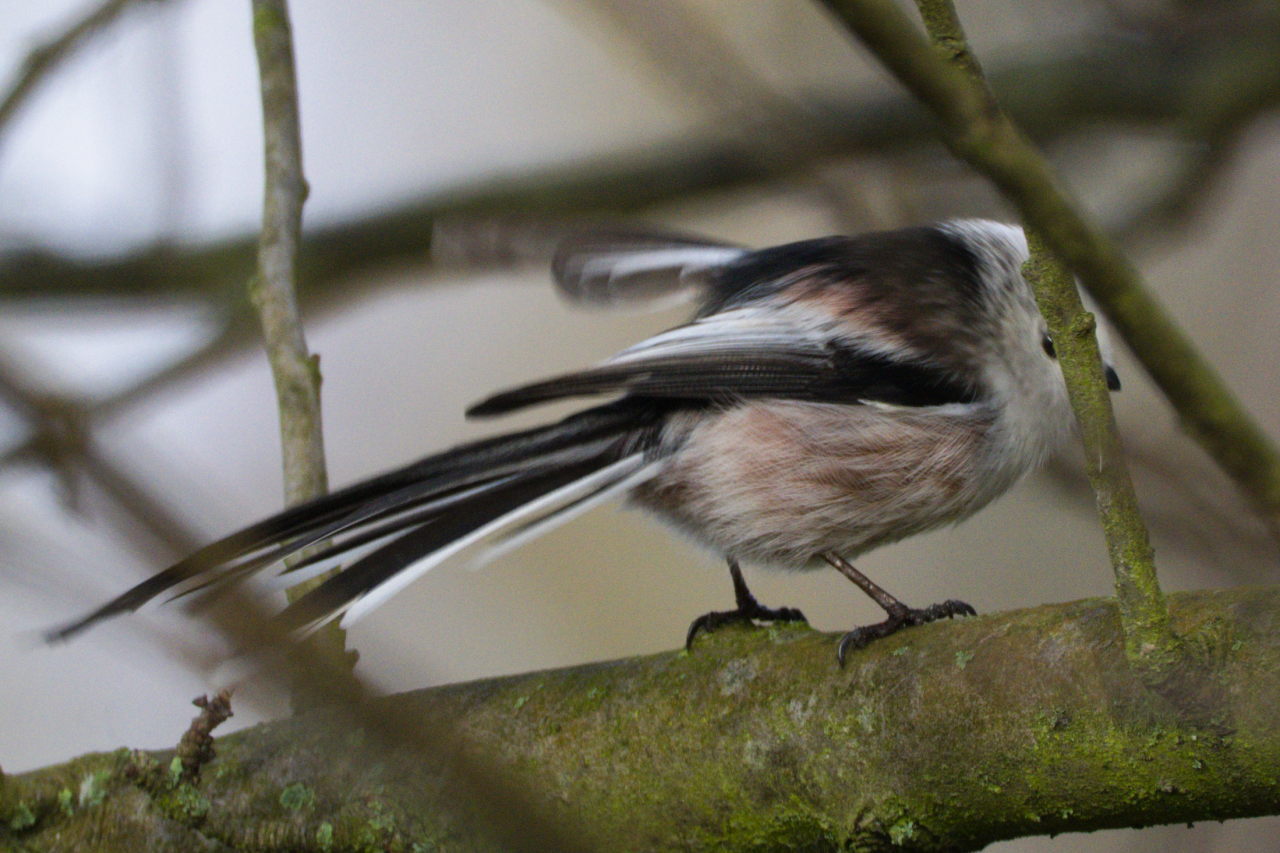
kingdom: Animalia
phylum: Chordata
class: Aves
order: Passeriformes
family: Aegithalidae
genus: Aegithalos
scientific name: Aegithalos caudatus
